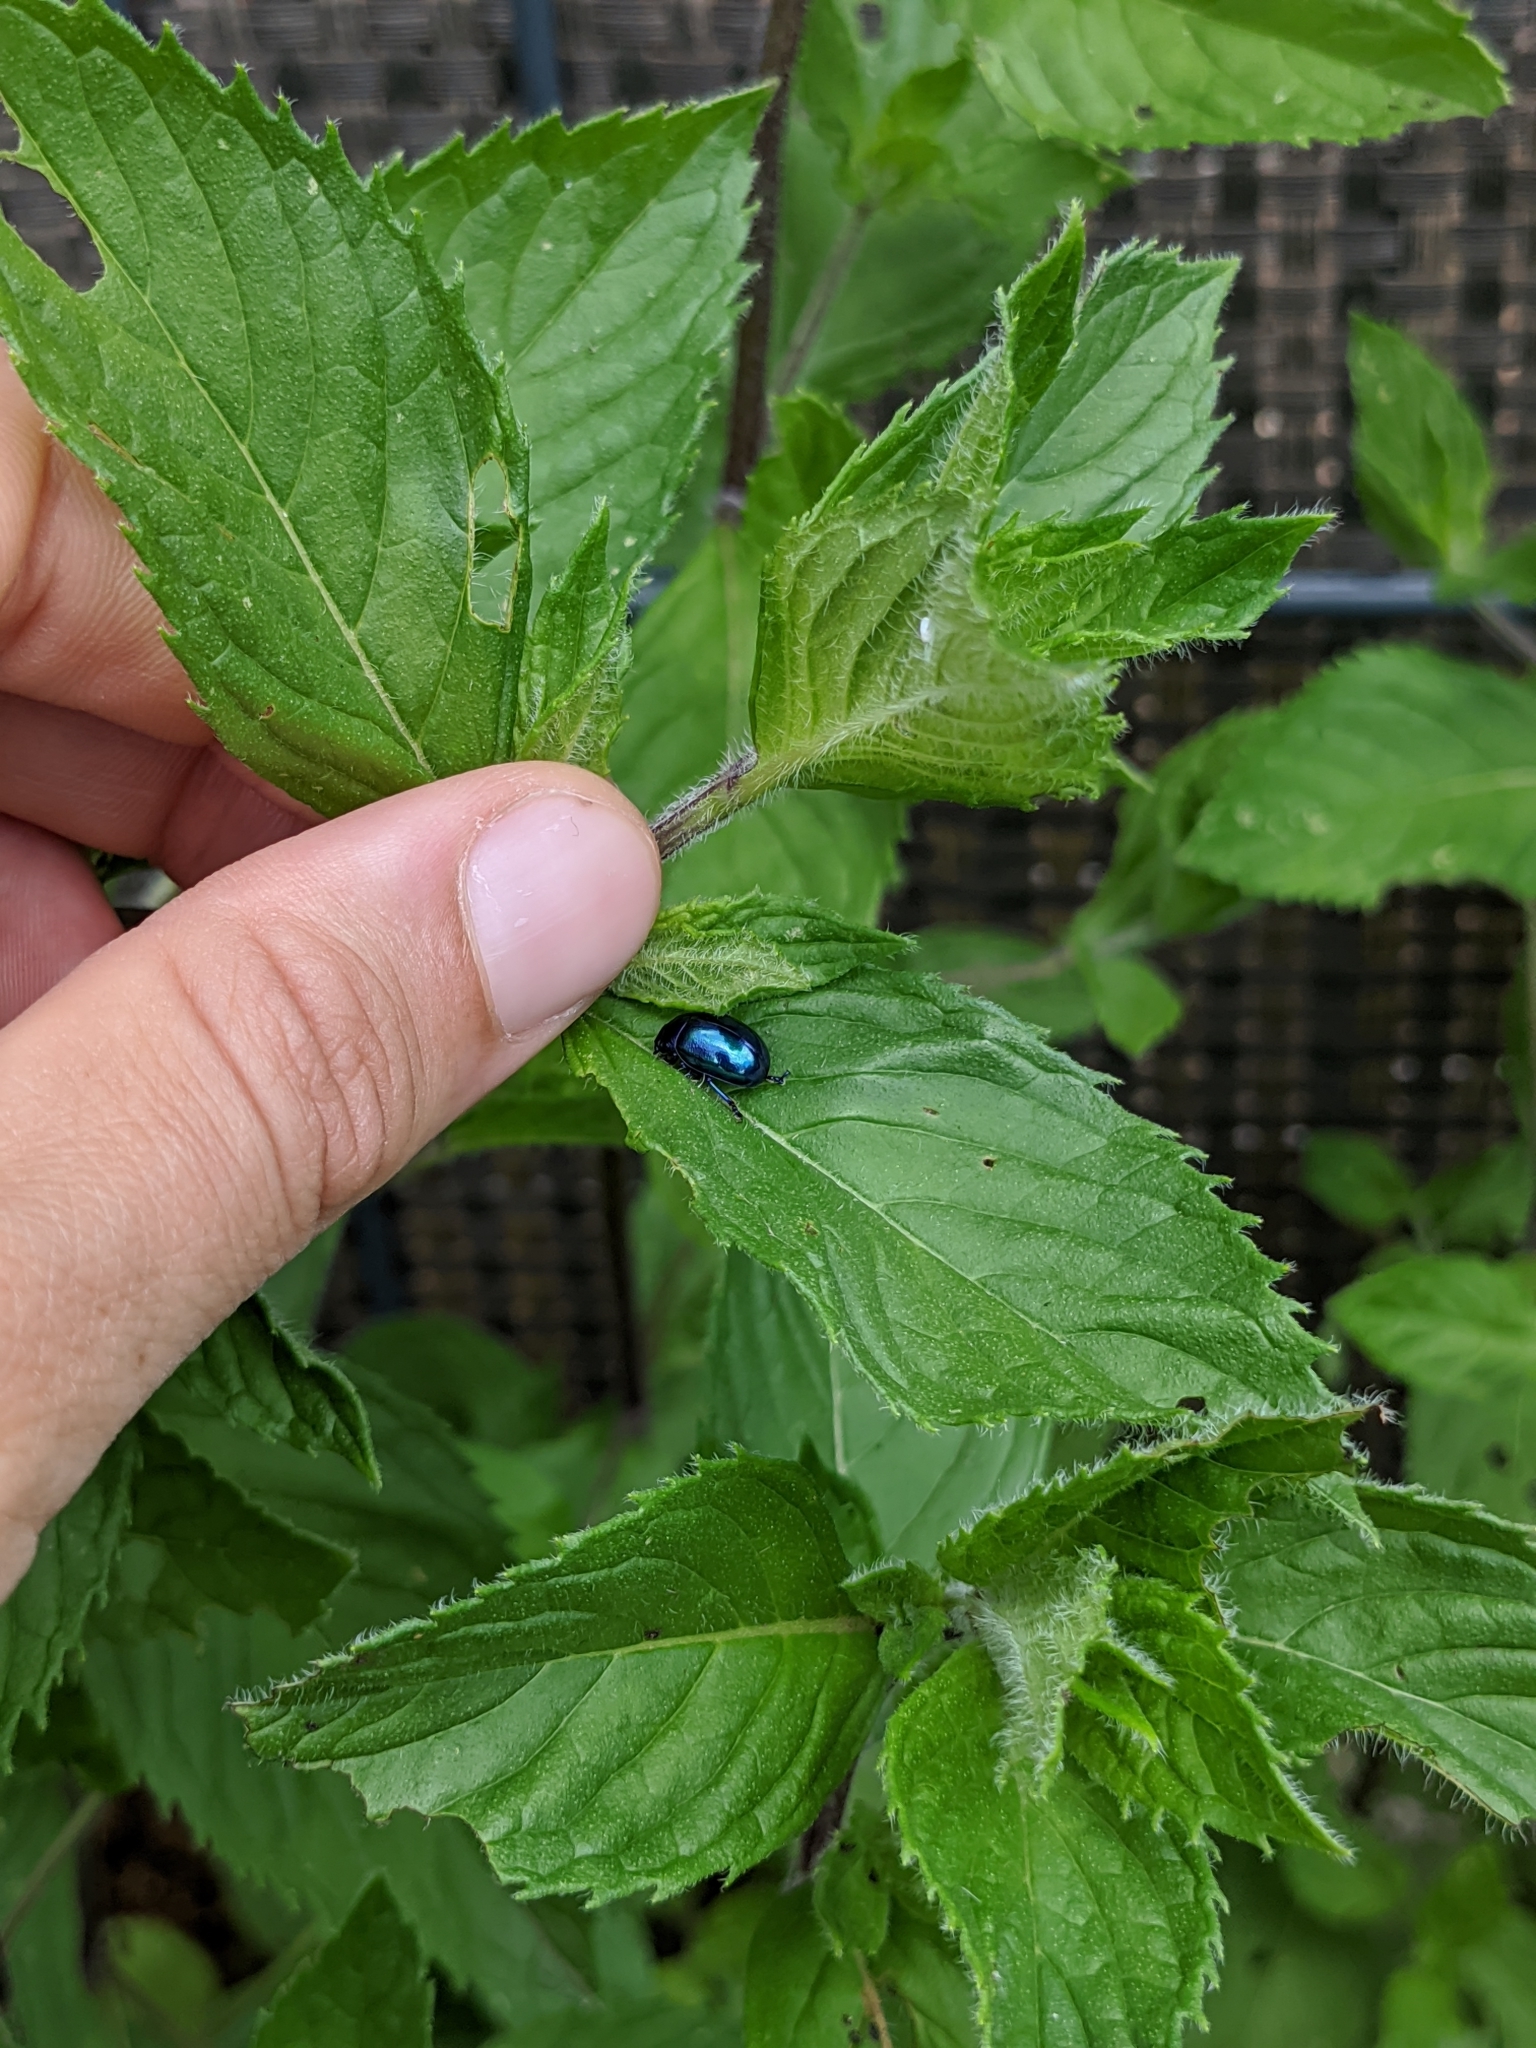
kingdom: Animalia
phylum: Arthropoda
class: Insecta
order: Coleoptera
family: Chrysomelidae
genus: Chrysolina
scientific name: Chrysolina coerulans
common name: Blue mint beetle
